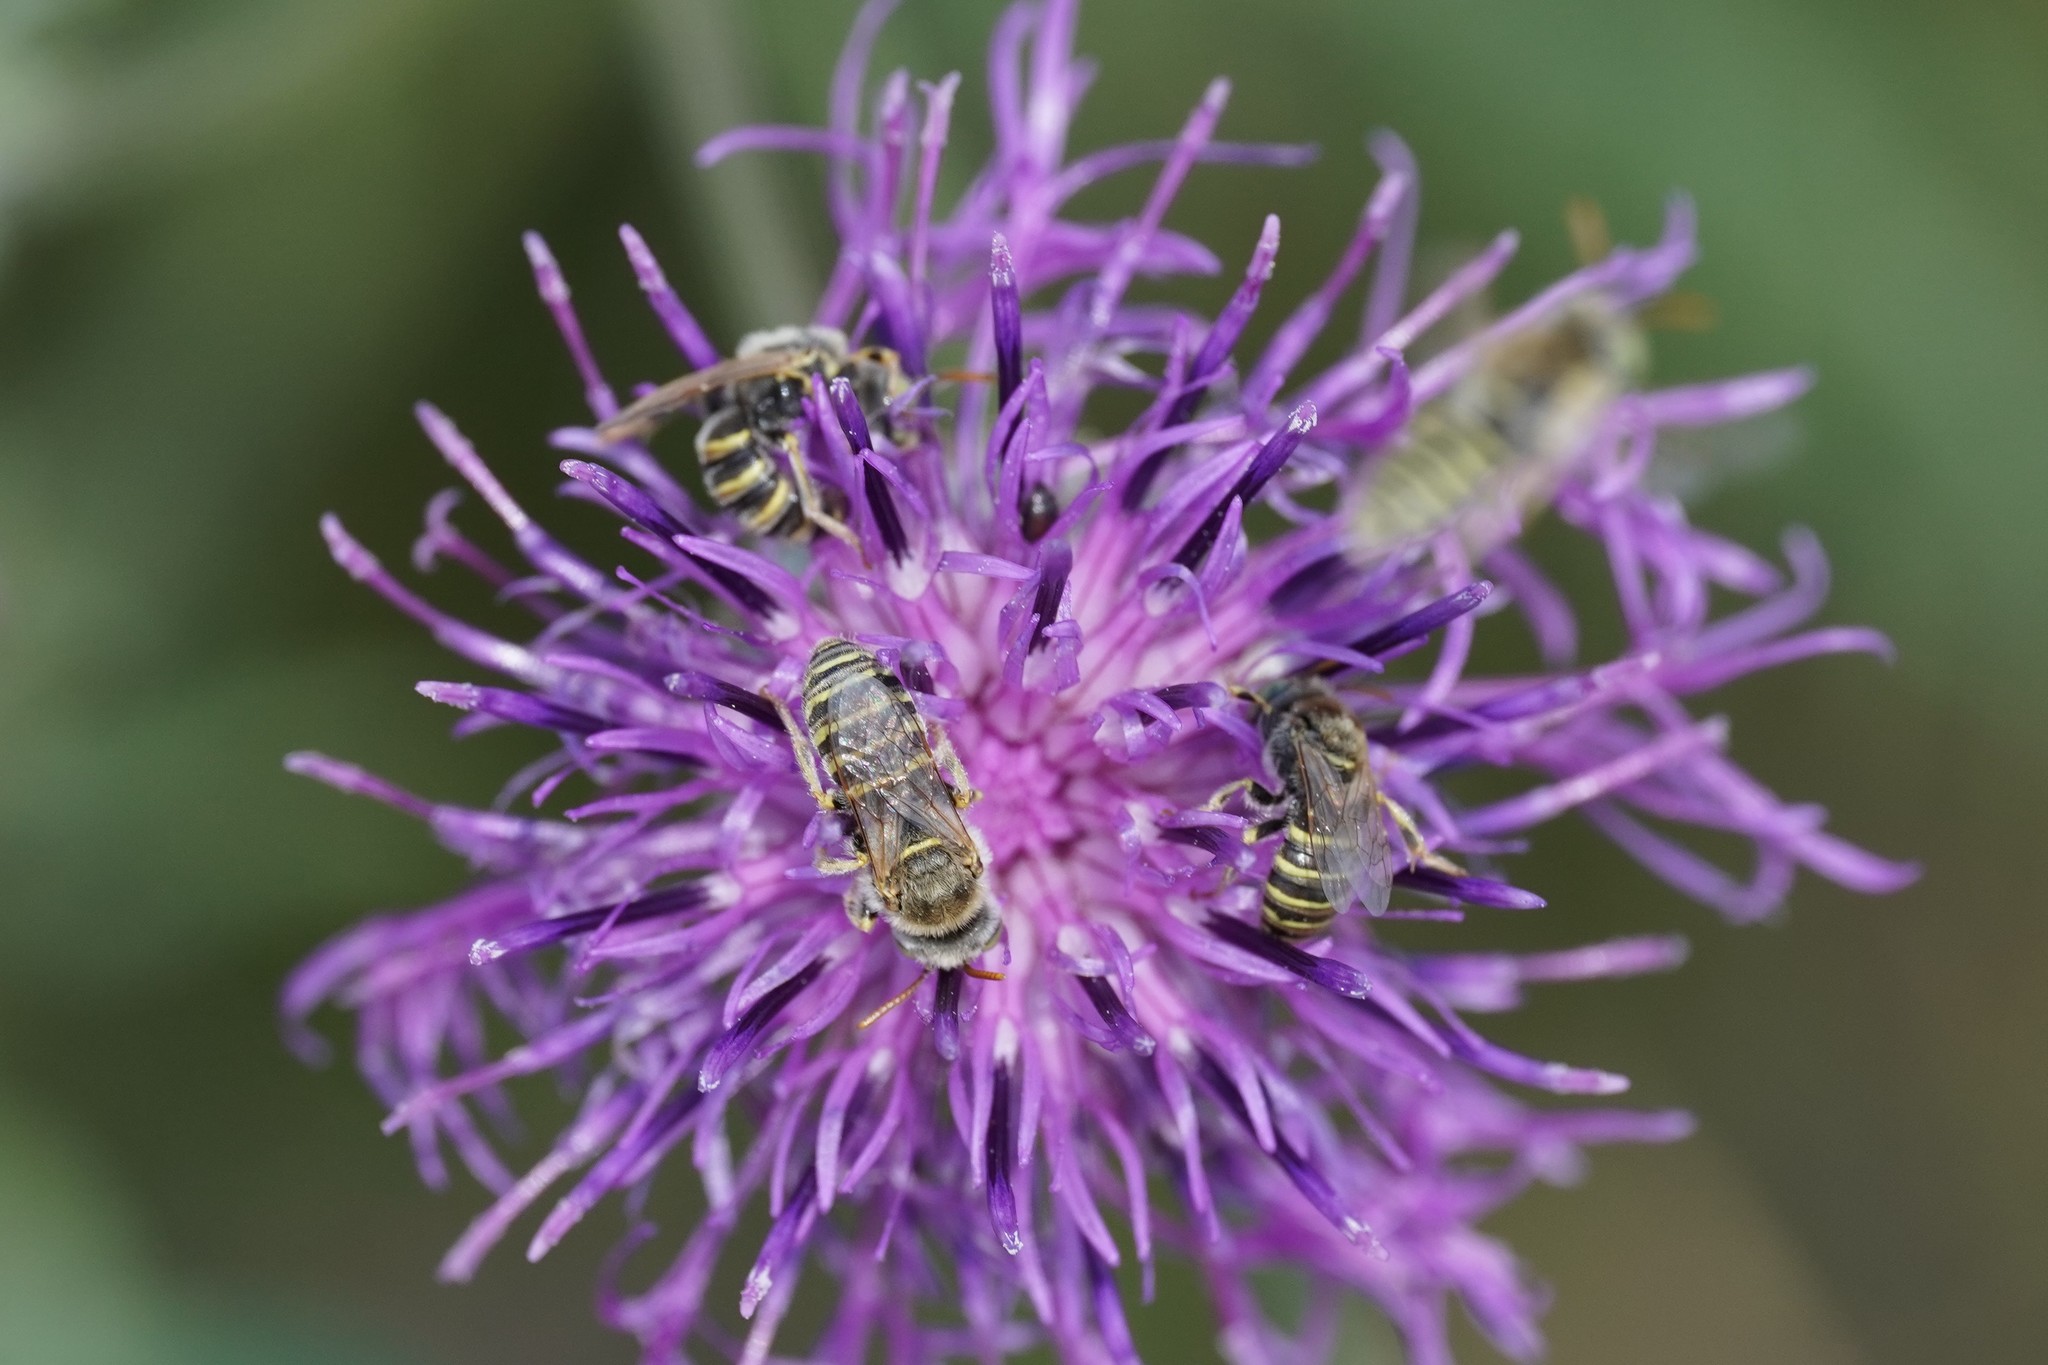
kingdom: Animalia
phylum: Arthropoda
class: Insecta
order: Hymenoptera
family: Andrenidae
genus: Camptopoeum
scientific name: Camptopoeum friesei
